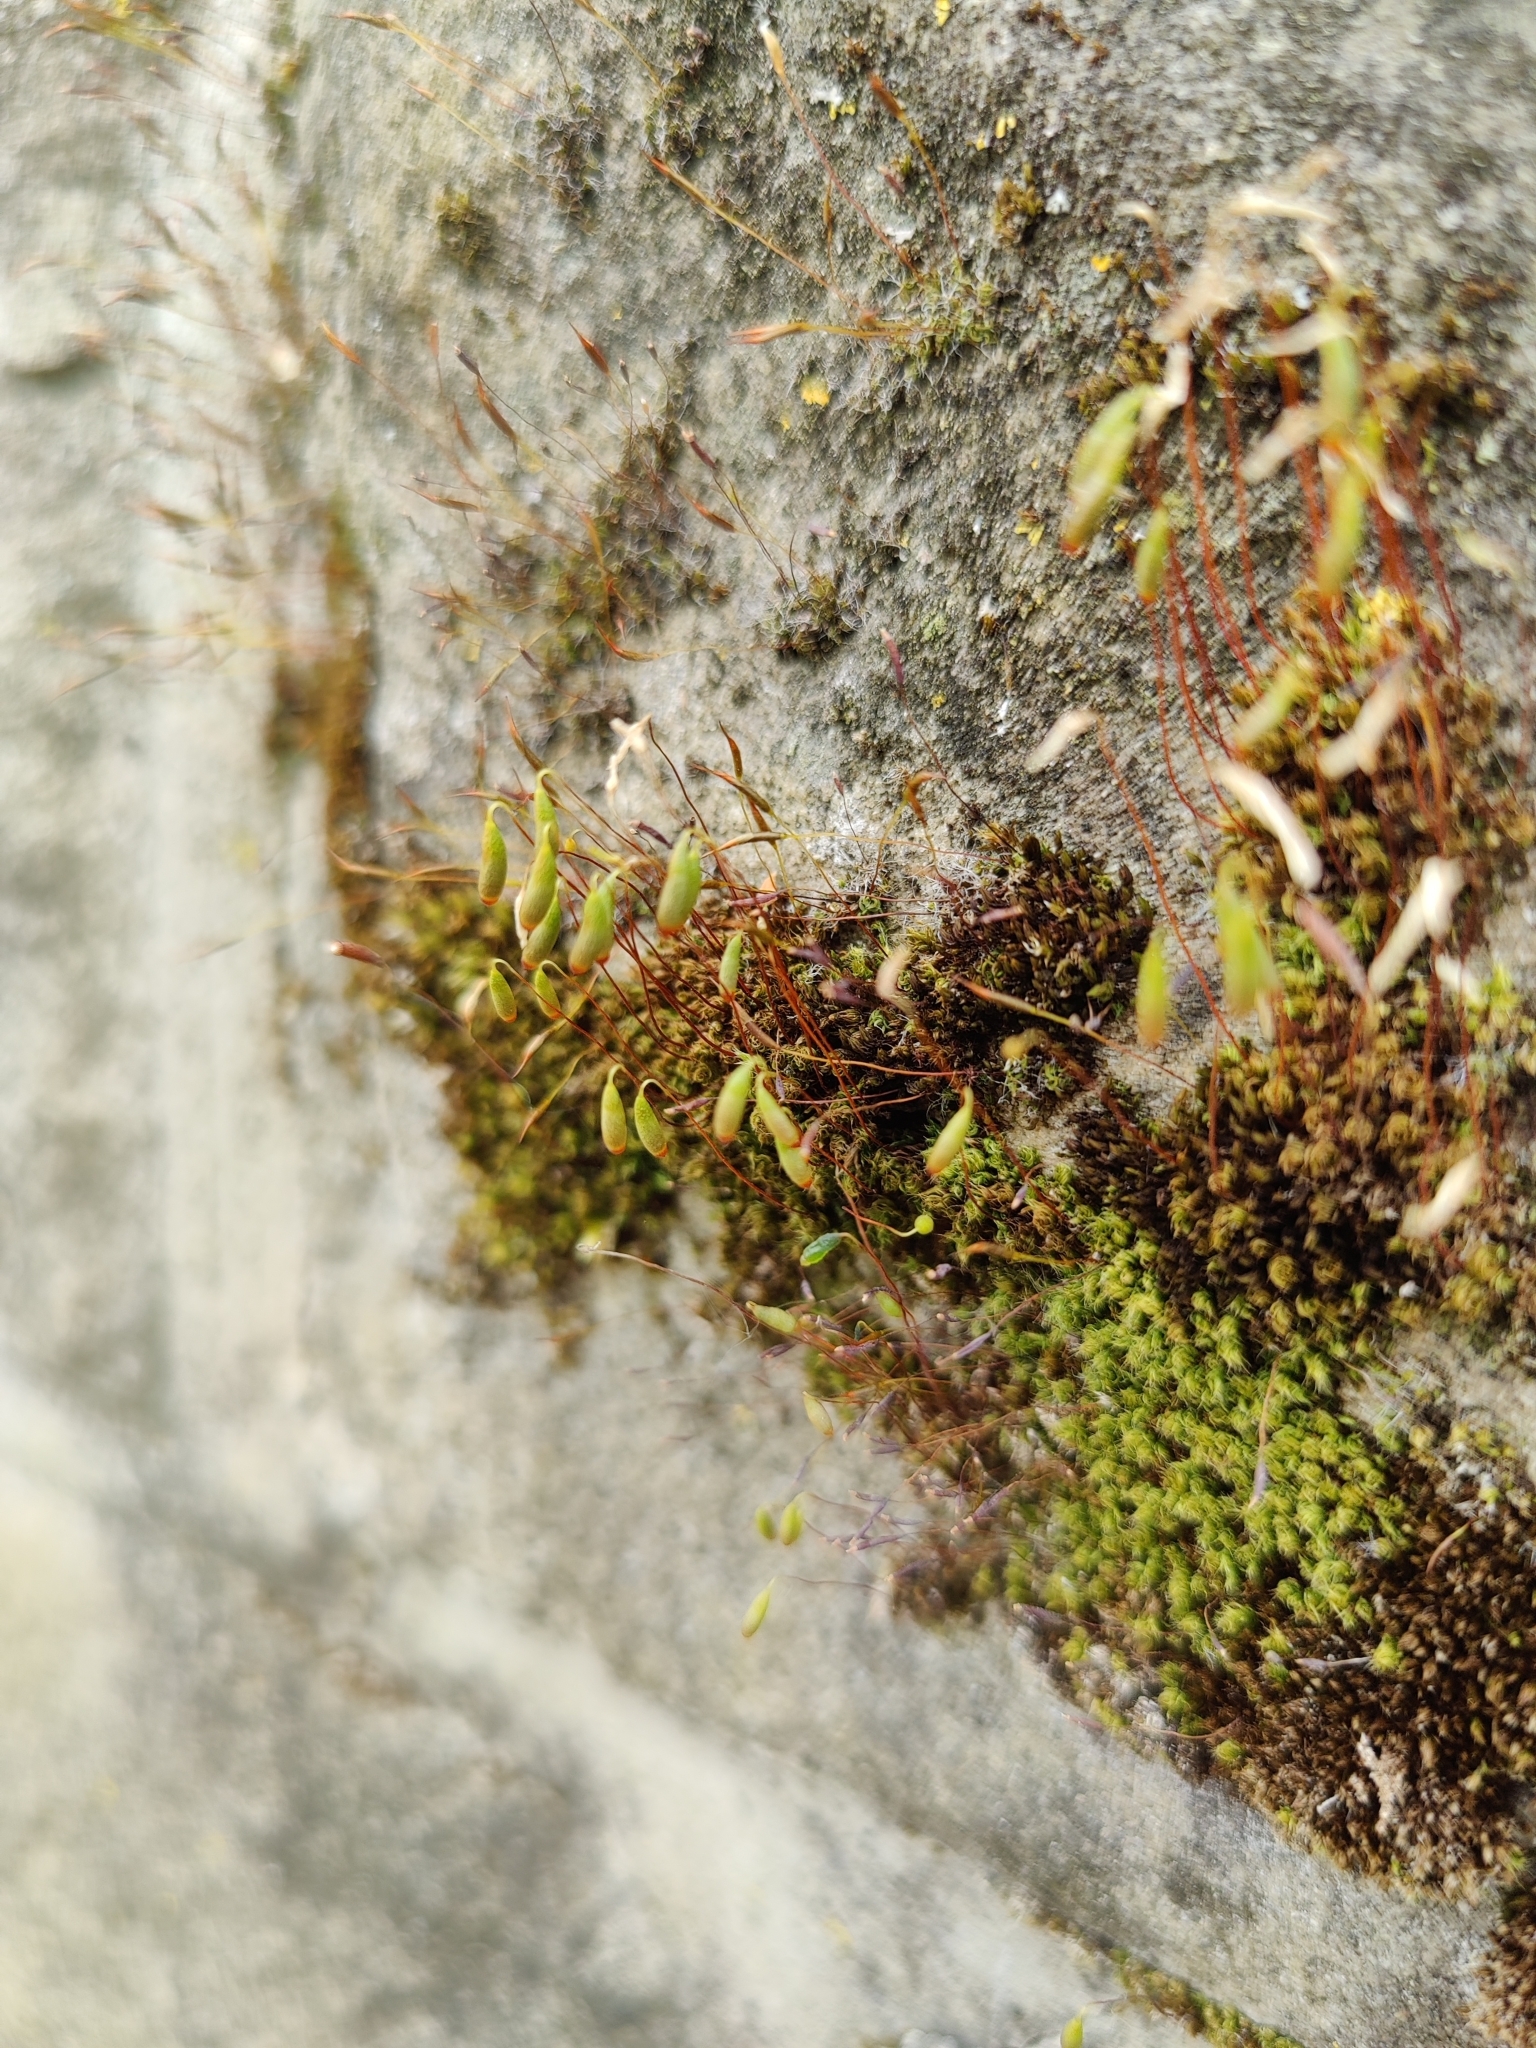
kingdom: Plantae
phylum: Bryophyta
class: Bryopsida
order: Bryales
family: Bryaceae
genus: Rosulabryum
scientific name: Rosulabryum capillare
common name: Capillary thread-moss
